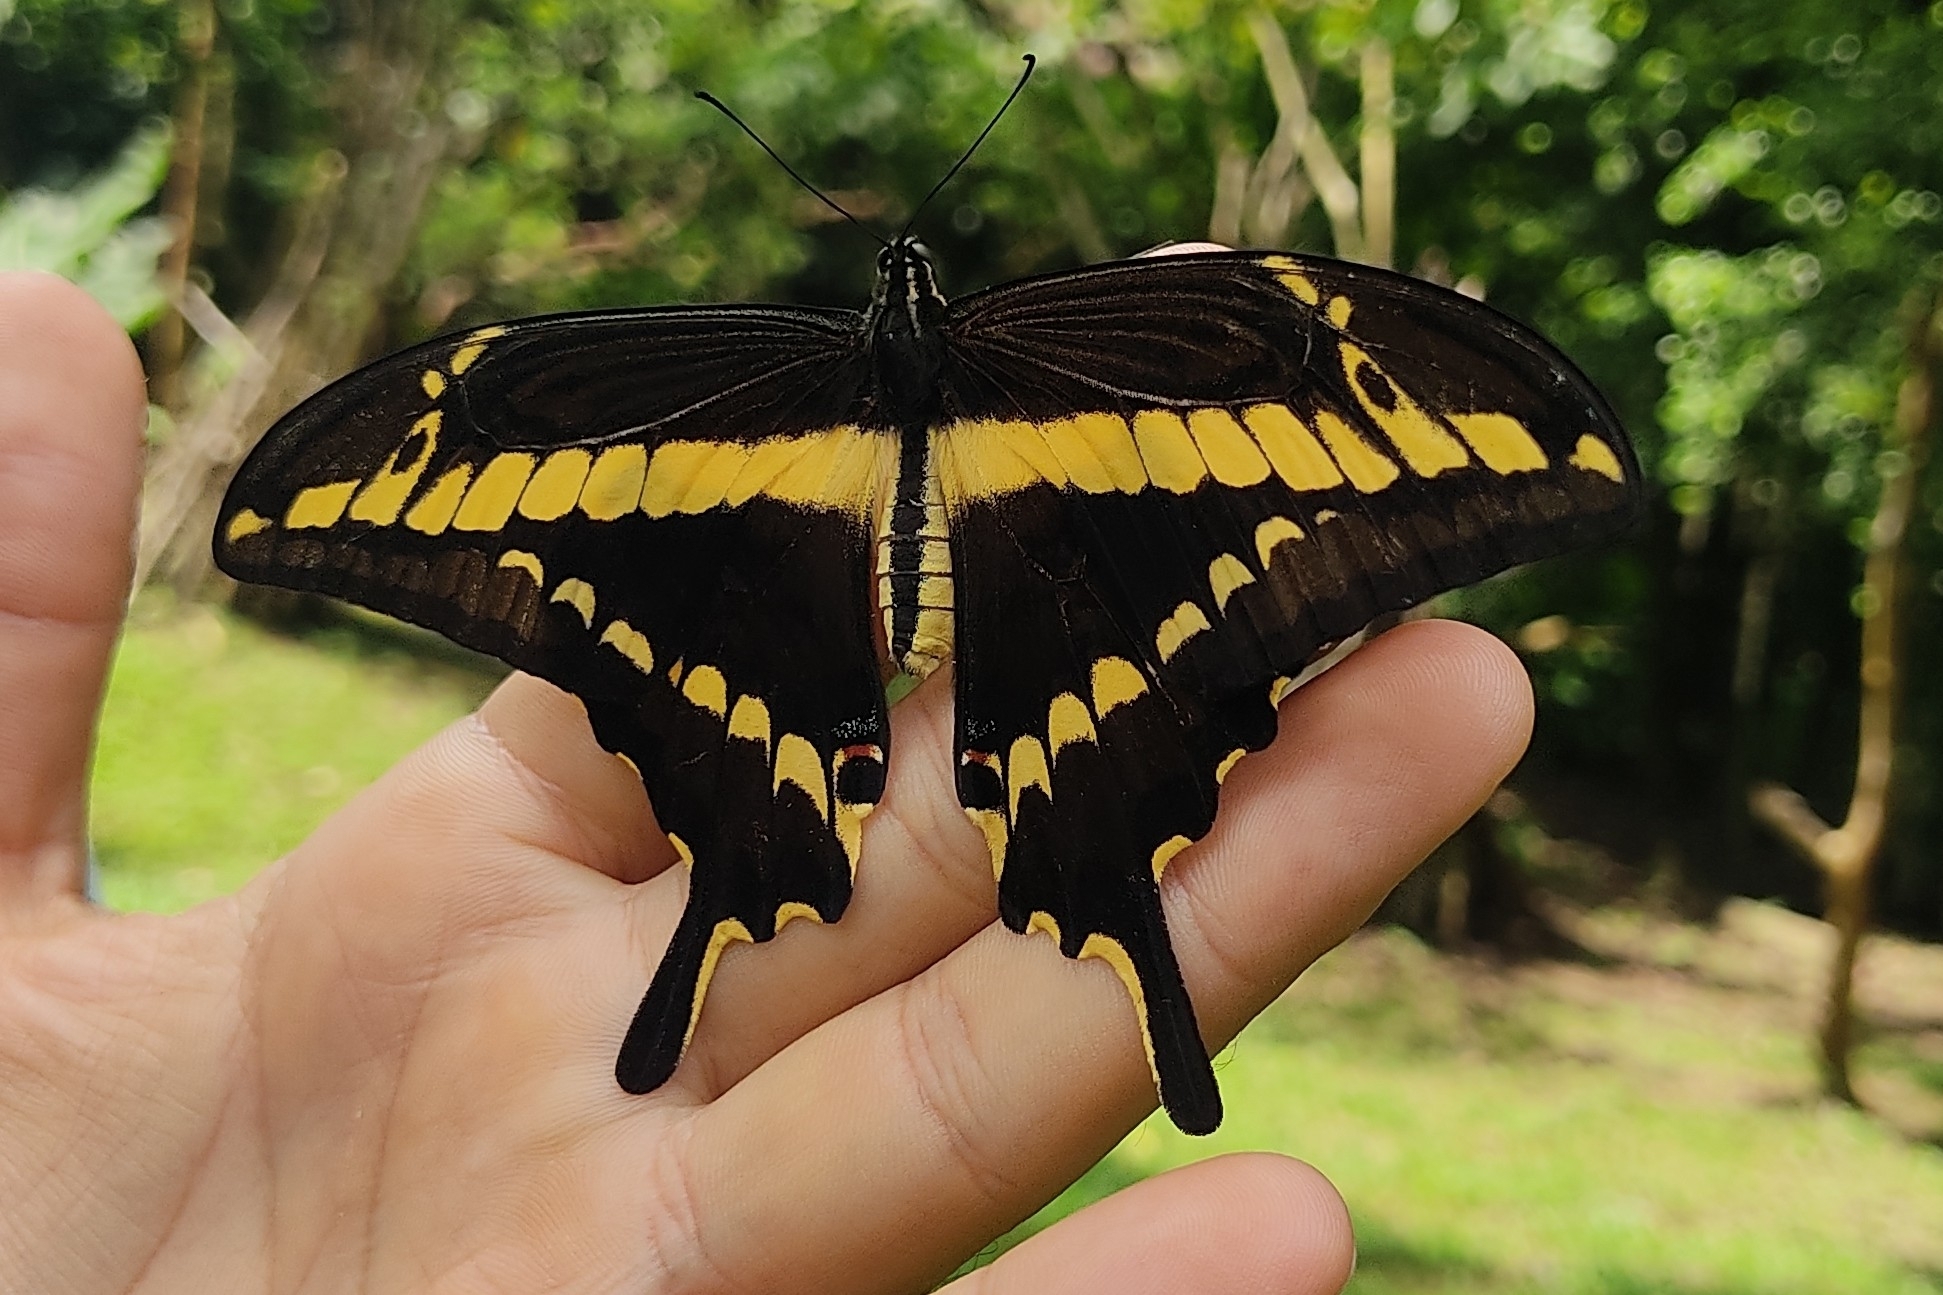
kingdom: Animalia
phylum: Arthropoda
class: Insecta
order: Lepidoptera
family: Papilionidae
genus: Heraclides
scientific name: Heraclides pallas
